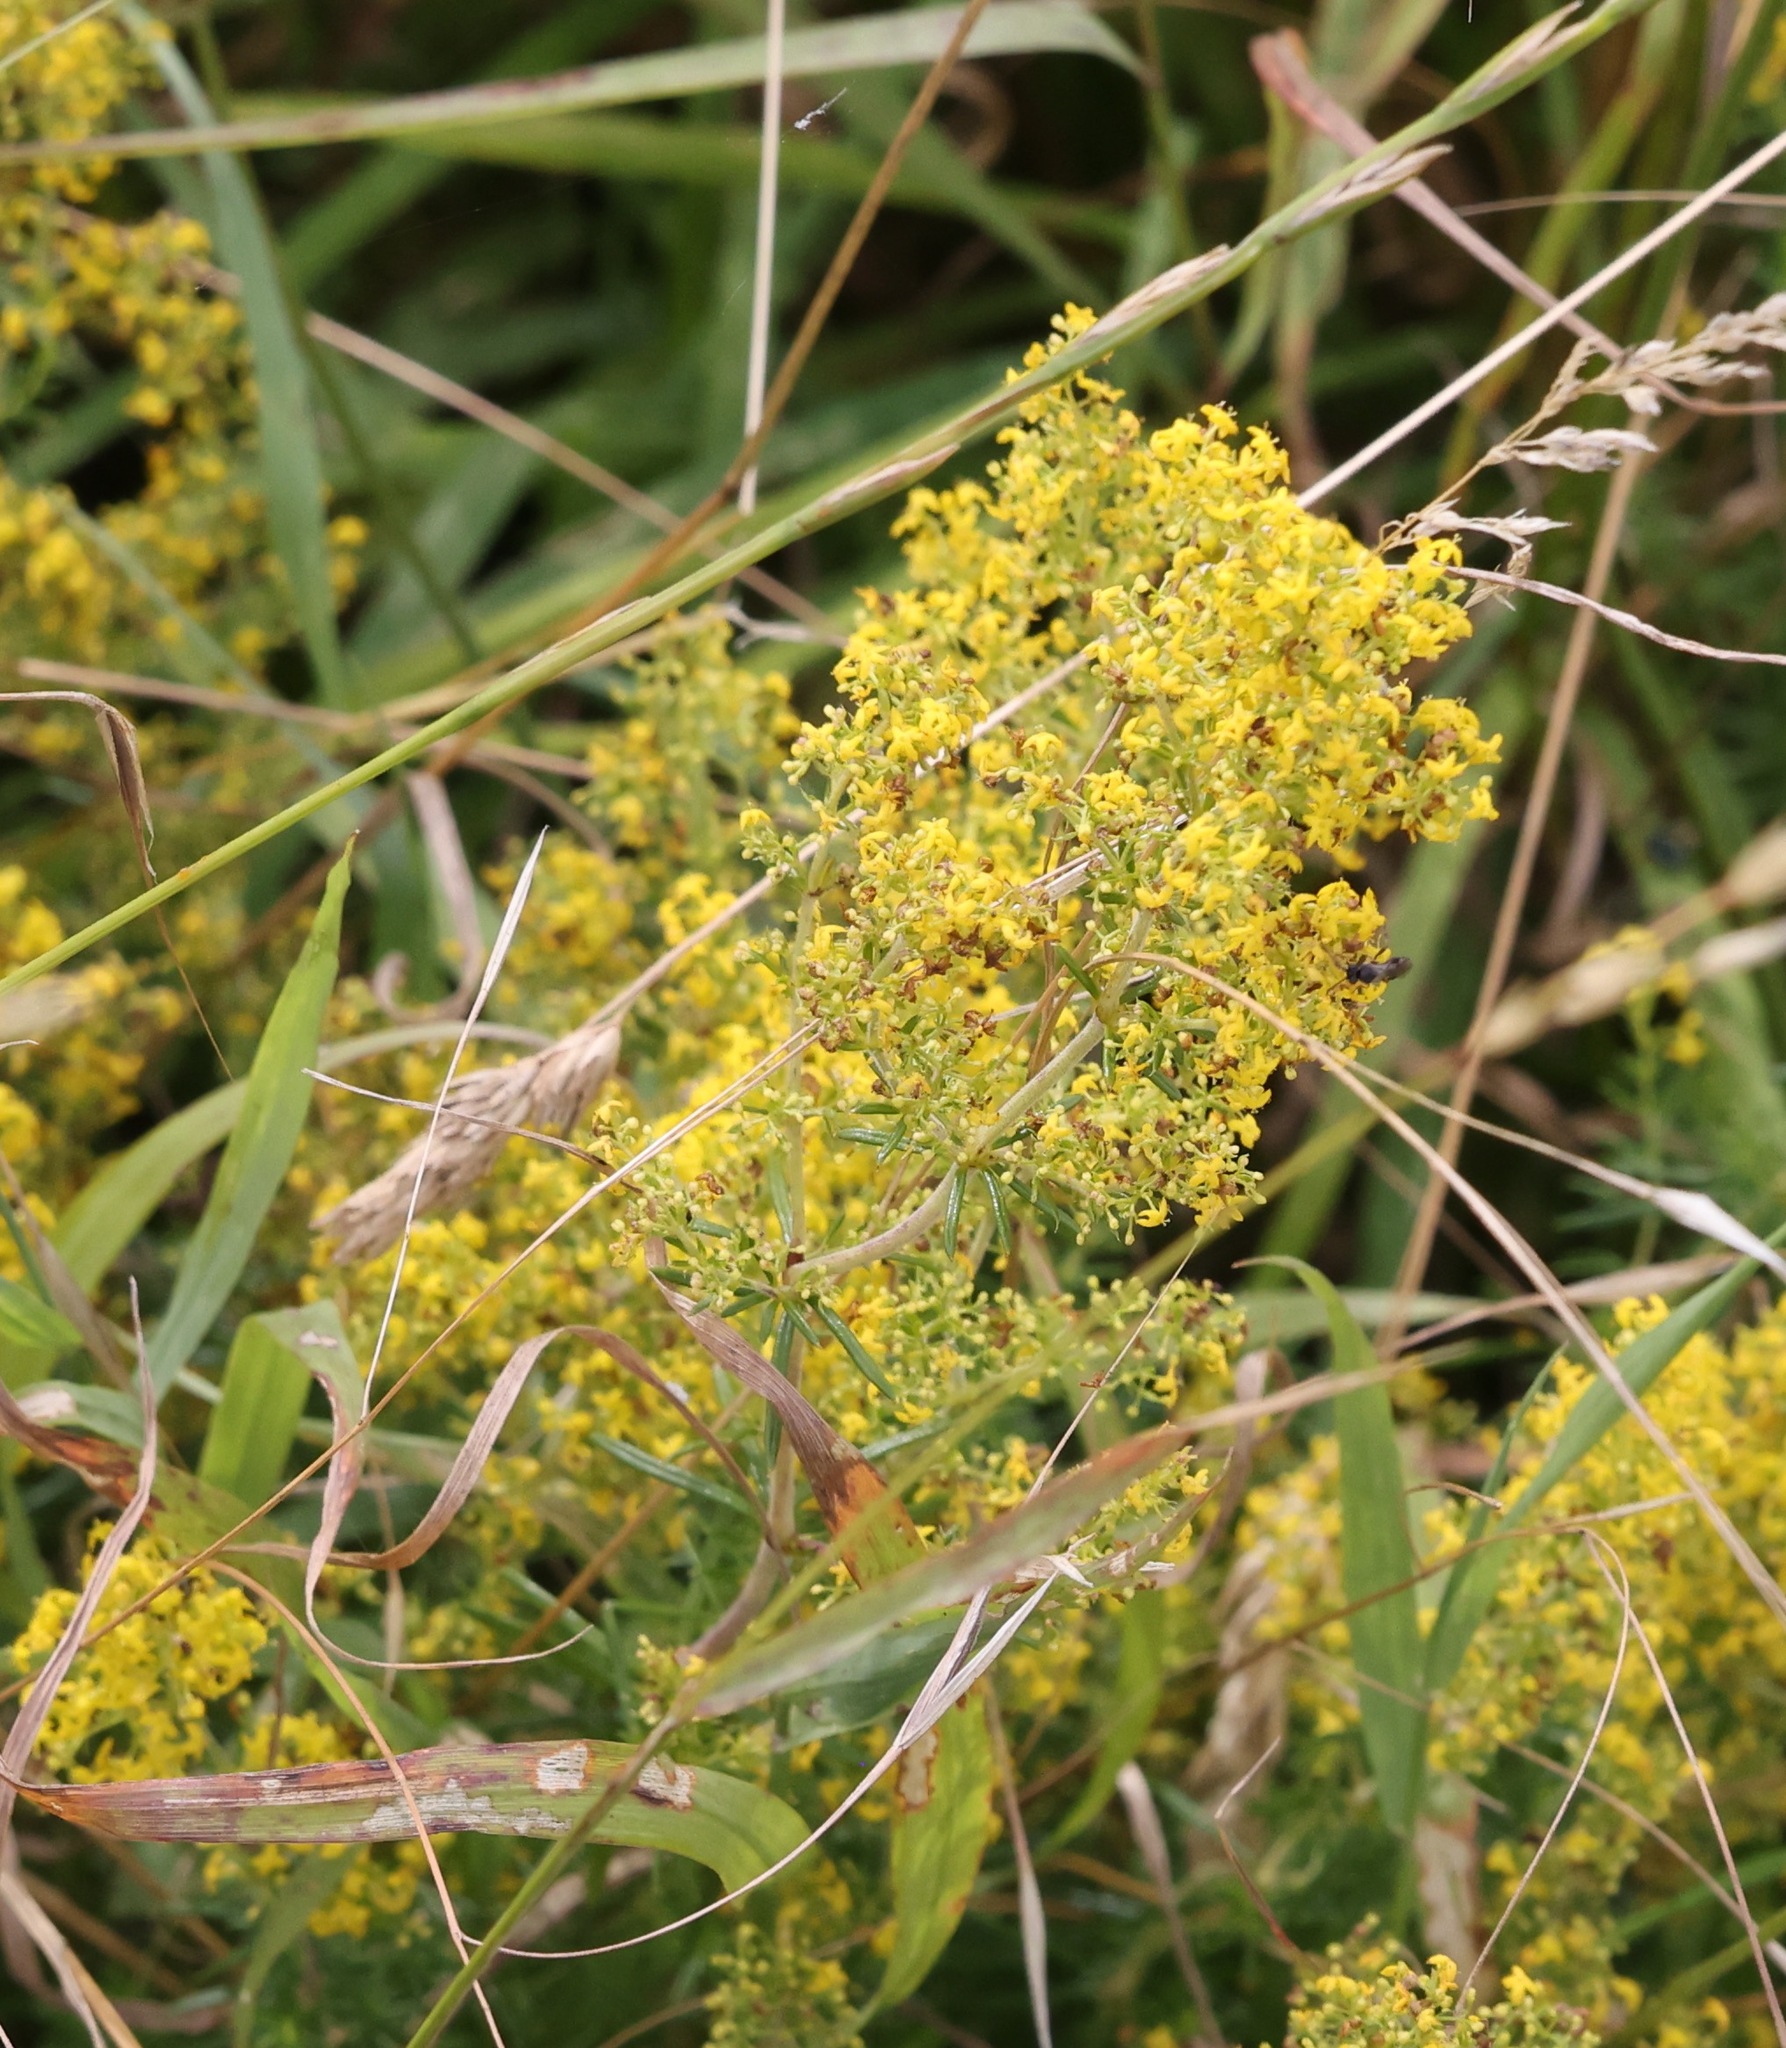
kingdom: Plantae
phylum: Tracheophyta
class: Magnoliopsida
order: Gentianales
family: Rubiaceae
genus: Galium
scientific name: Galium verum
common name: Lady's bedstraw
